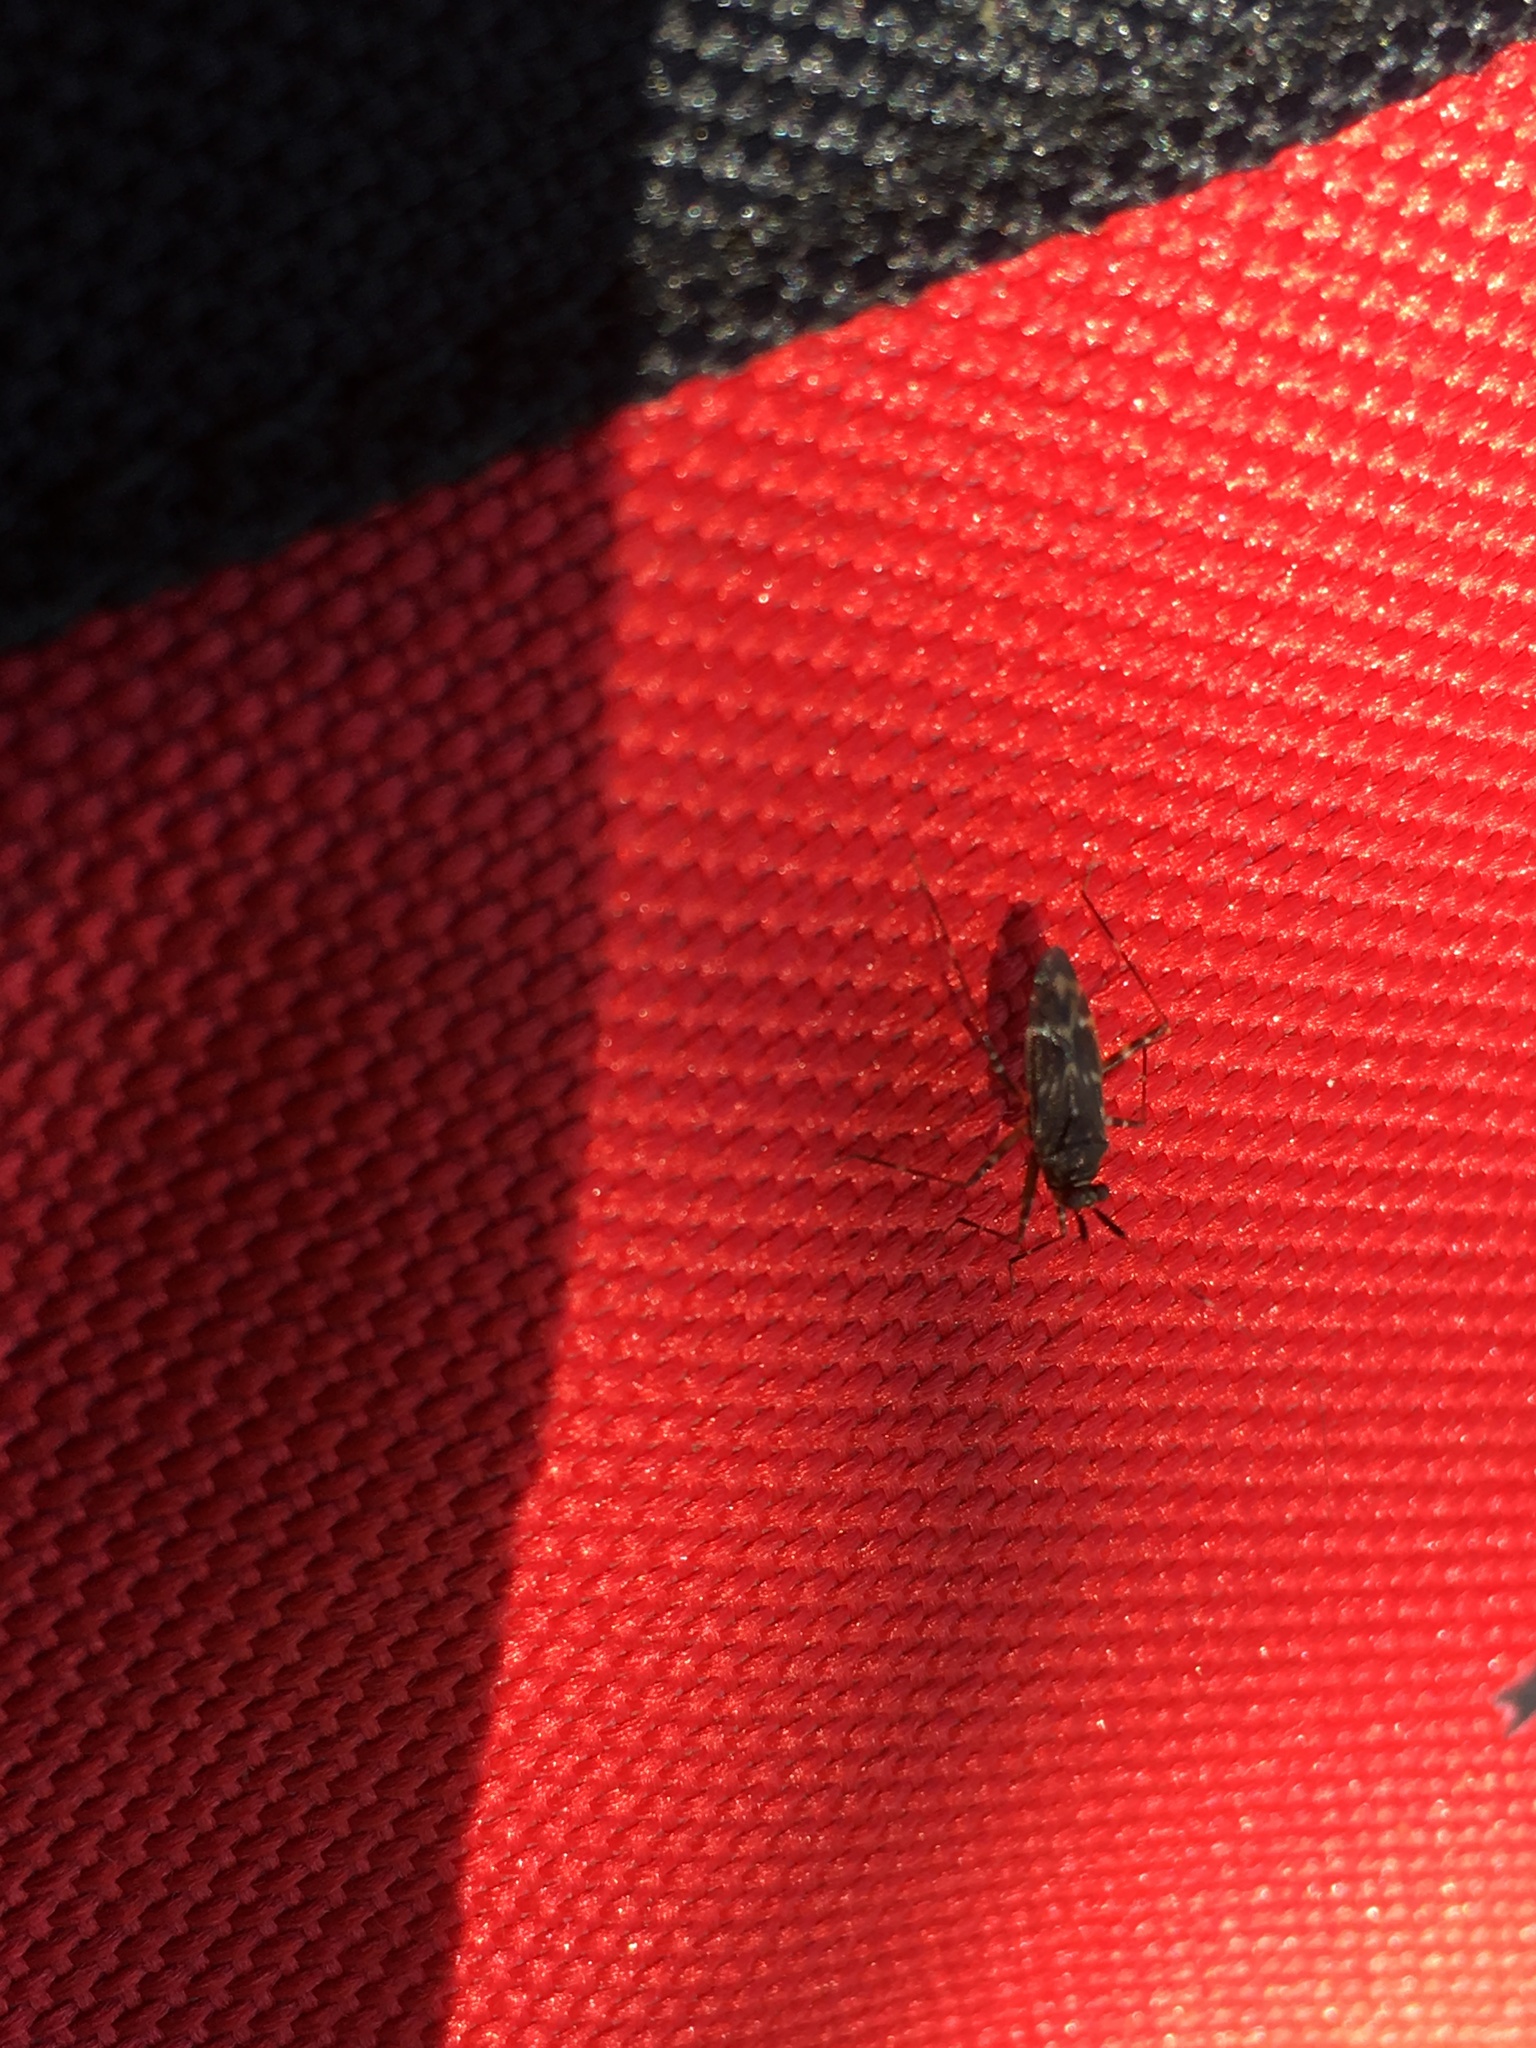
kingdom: Animalia
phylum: Arthropoda
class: Insecta
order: Hemiptera
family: Miridae
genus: Cylapus
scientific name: Cylapus tenuicornis
